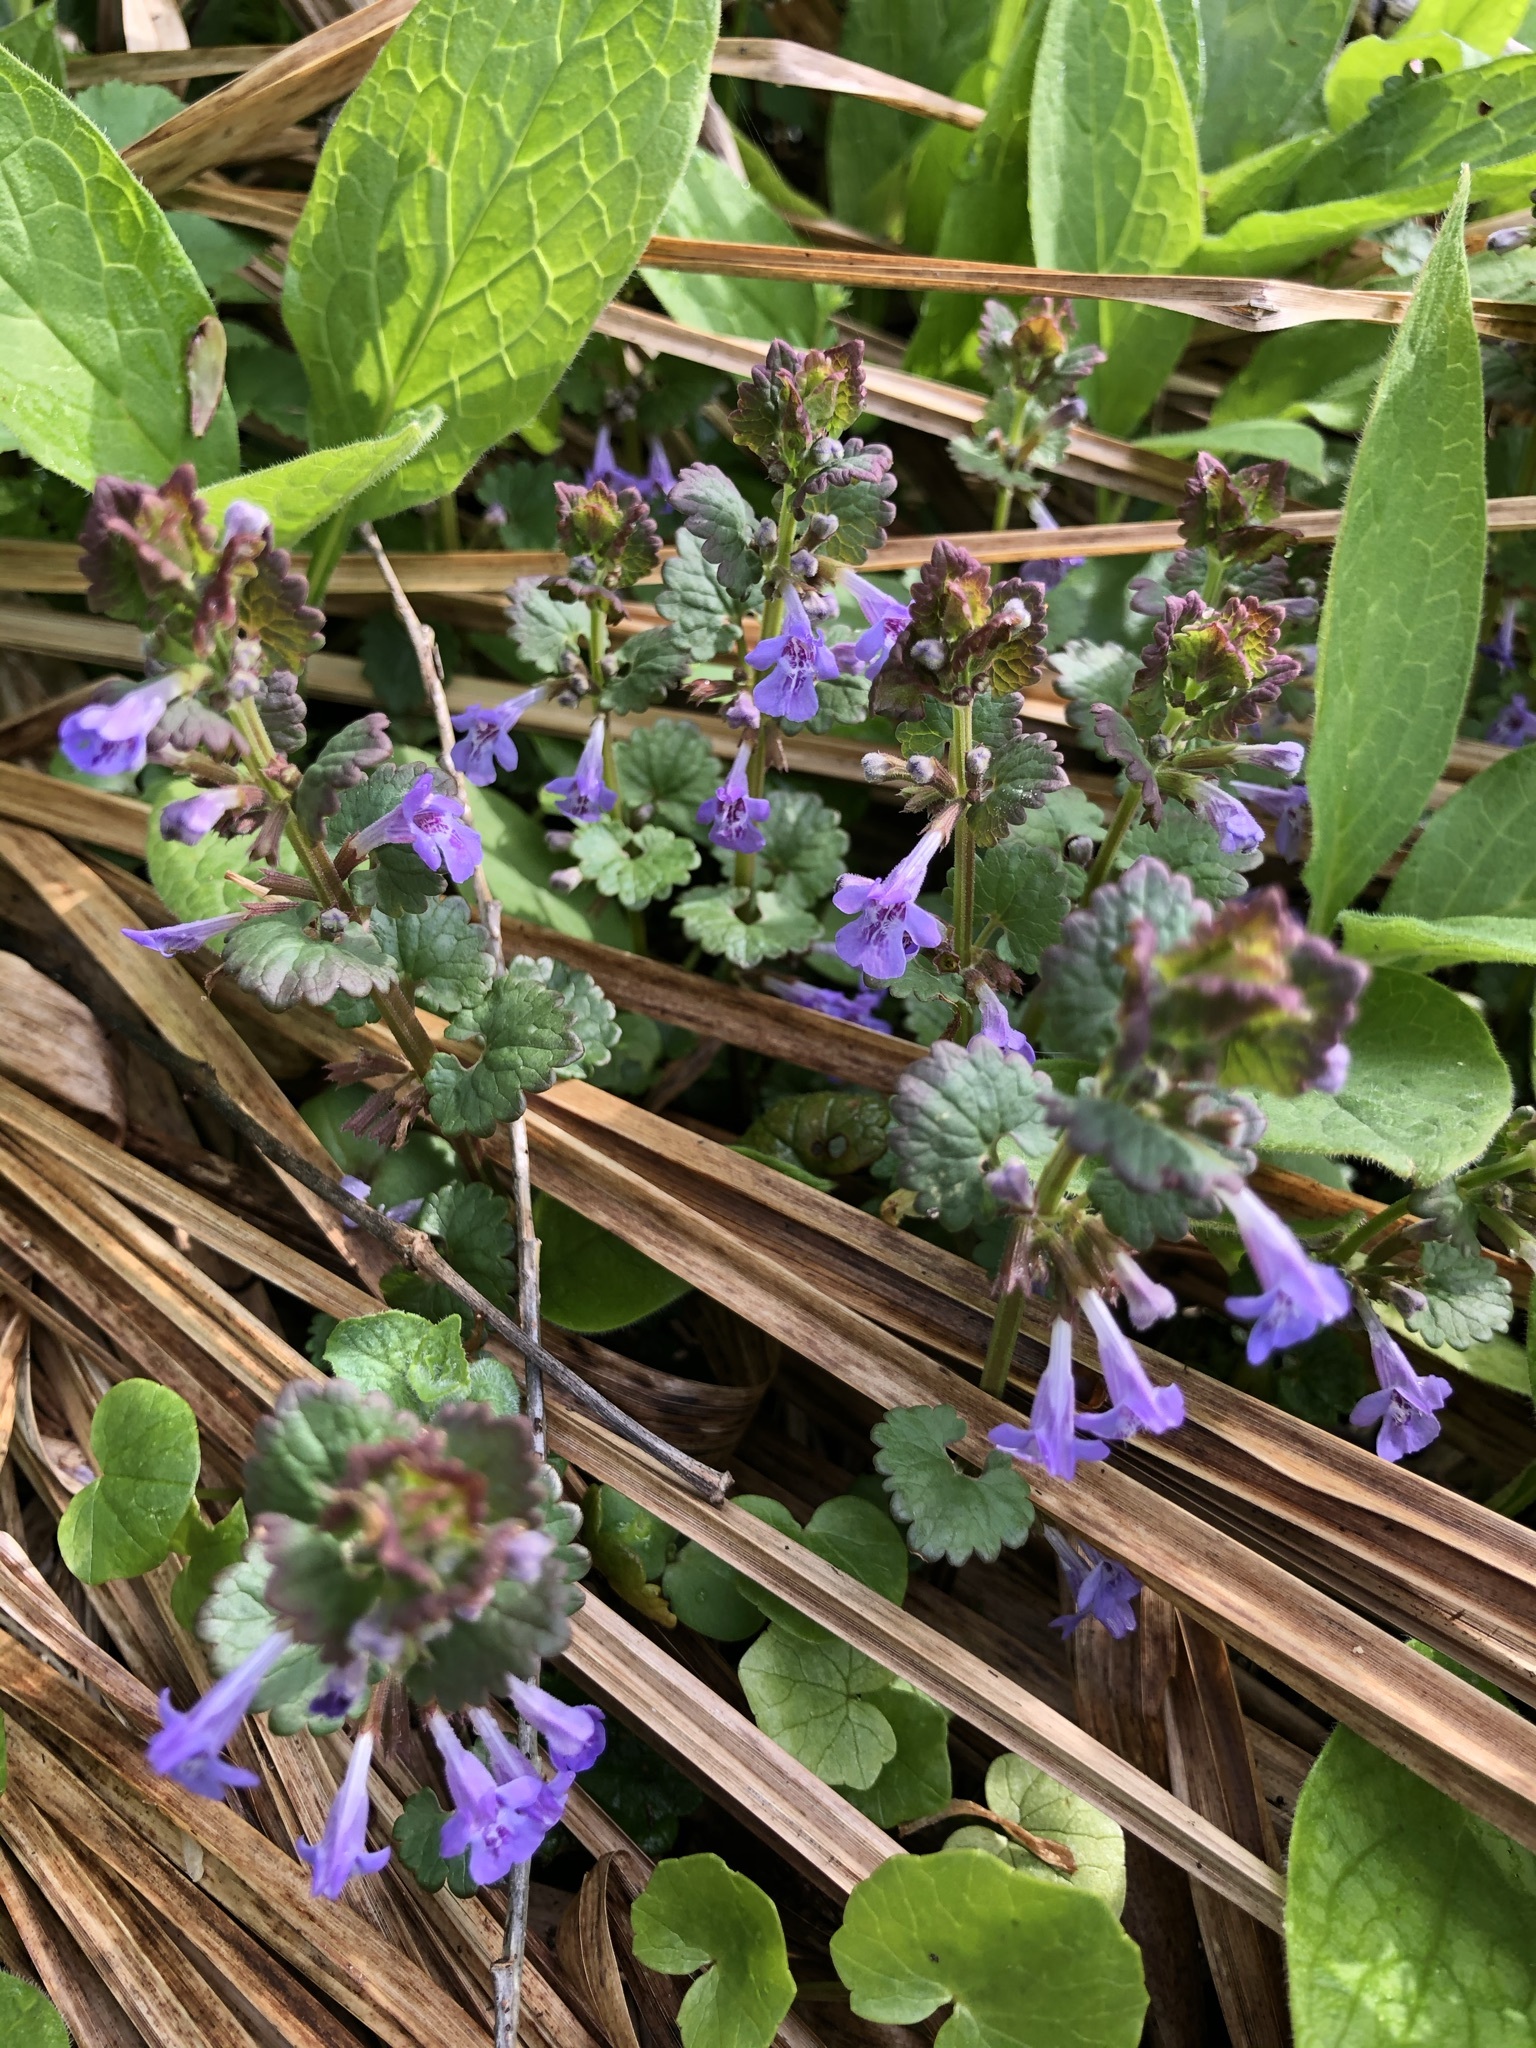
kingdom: Plantae
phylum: Tracheophyta
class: Magnoliopsida
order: Lamiales
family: Lamiaceae
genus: Glechoma
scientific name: Glechoma hederacea
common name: Ground ivy
